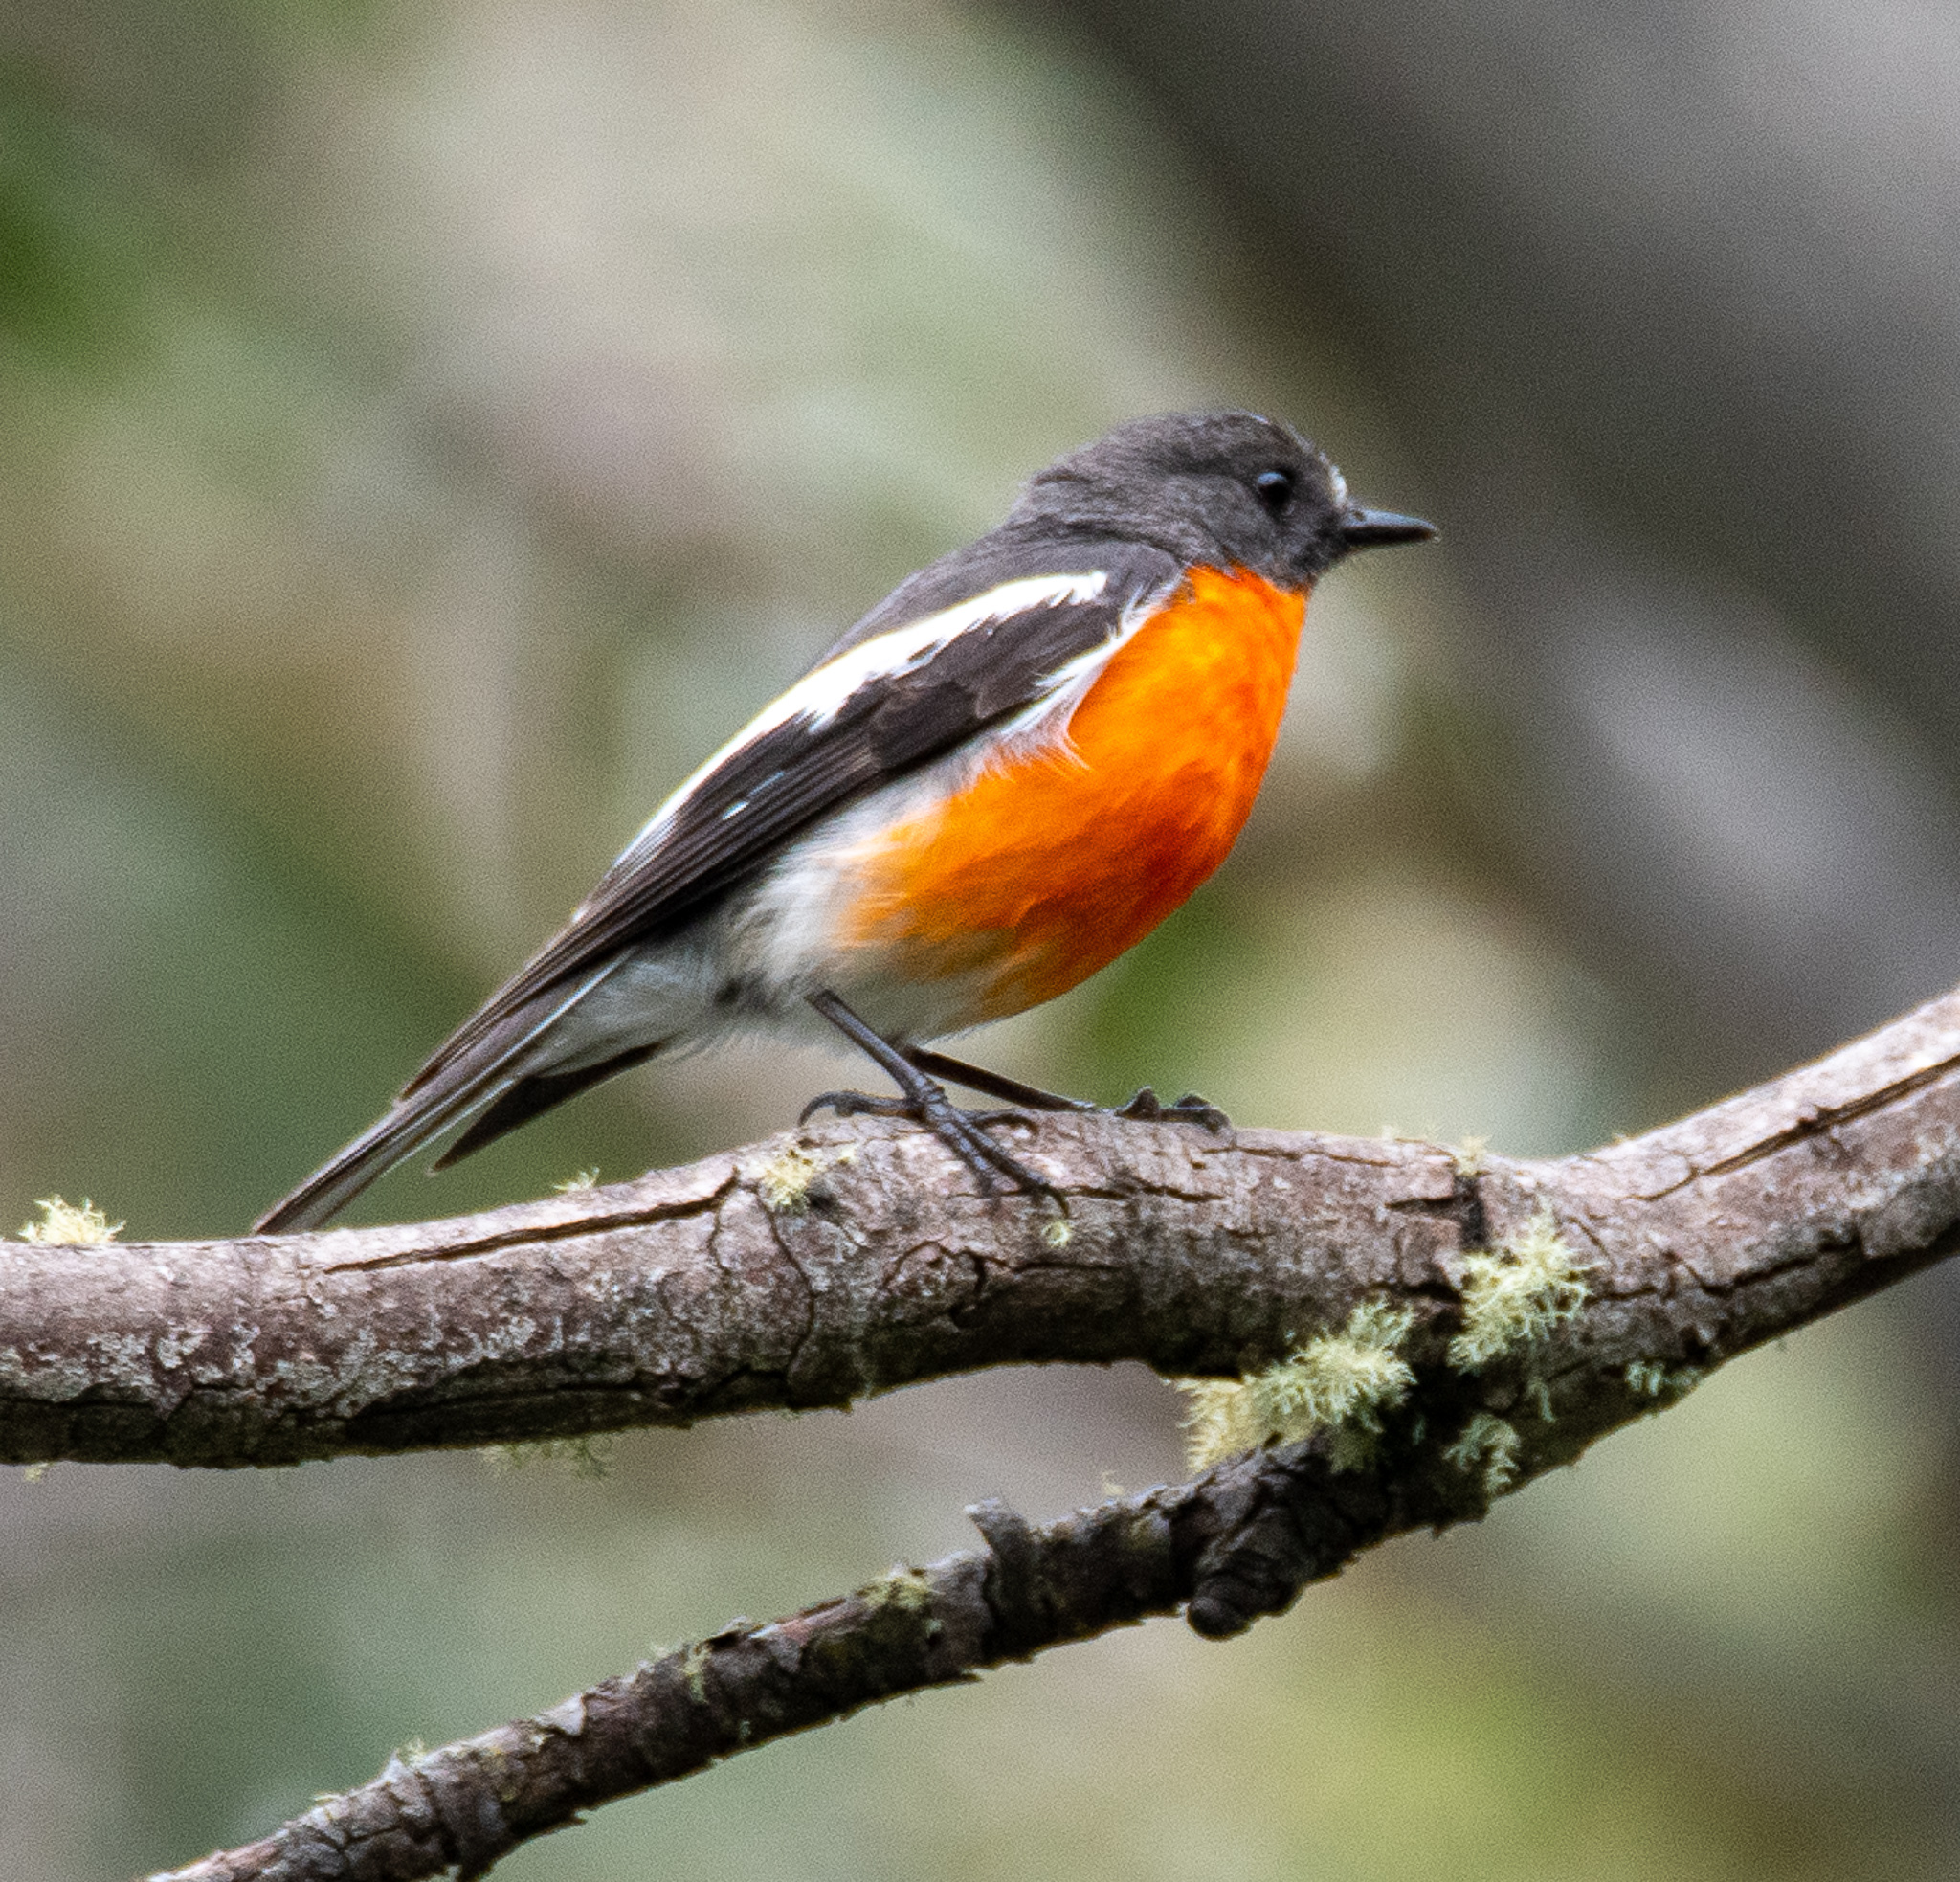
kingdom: Animalia
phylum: Chordata
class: Aves
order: Passeriformes
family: Petroicidae
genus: Petroica
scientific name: Petroica phoenicea
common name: Flame robin
